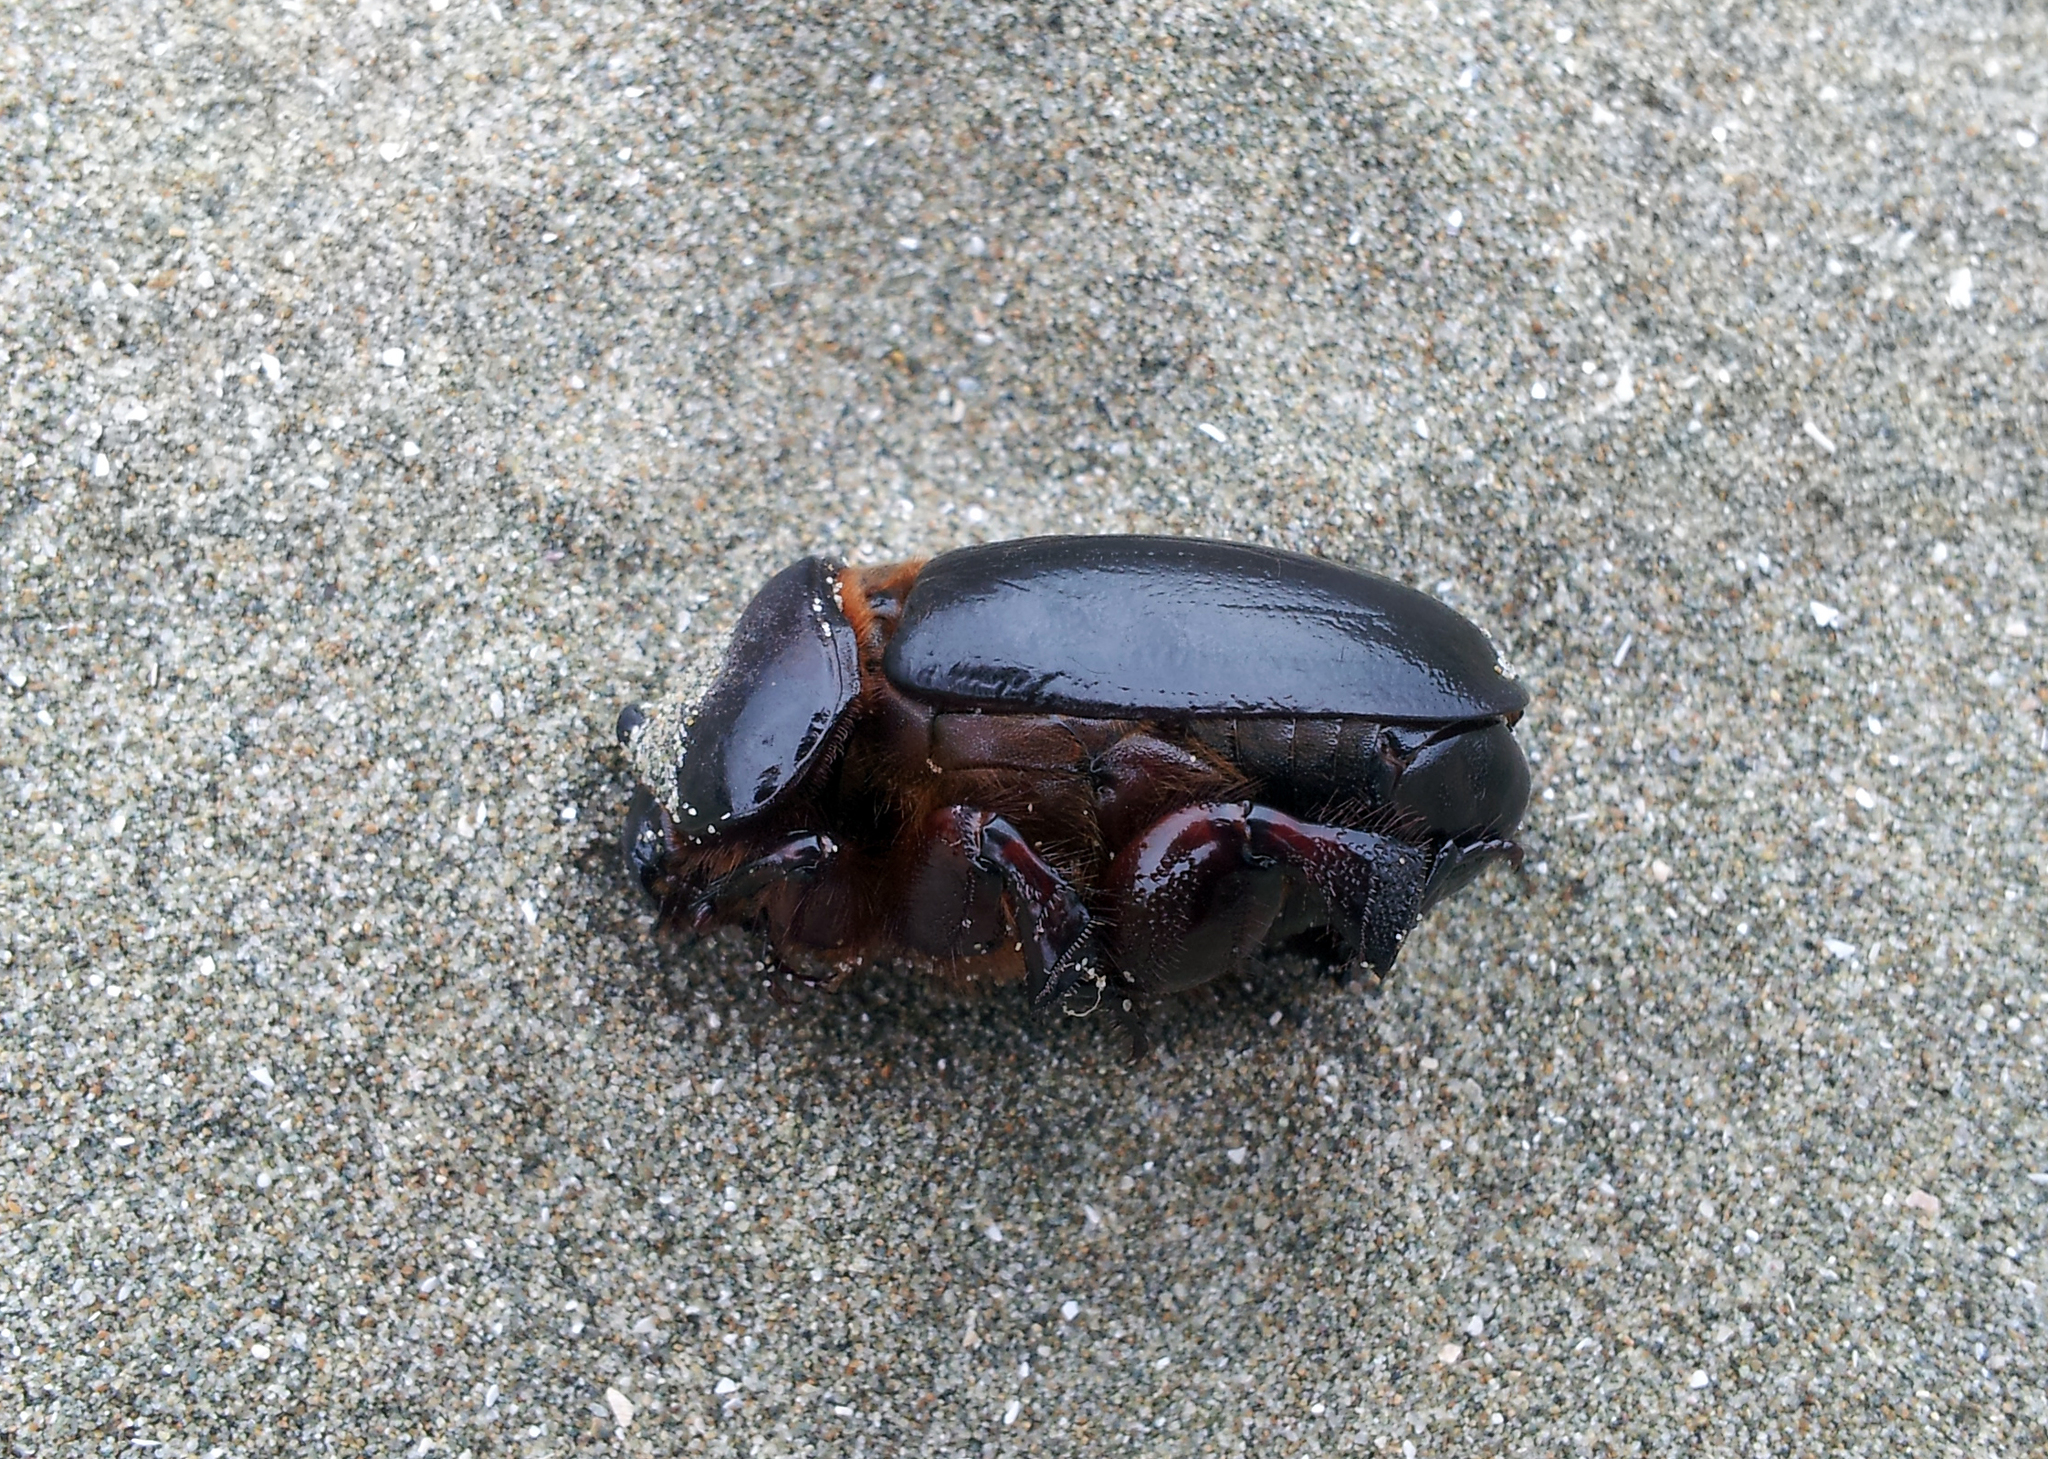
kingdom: Animalia
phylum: Arthropoda
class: Insecta
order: Coleoptera
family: Scarabaeidae
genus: Pericoptus
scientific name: Pericoptus truncatus
